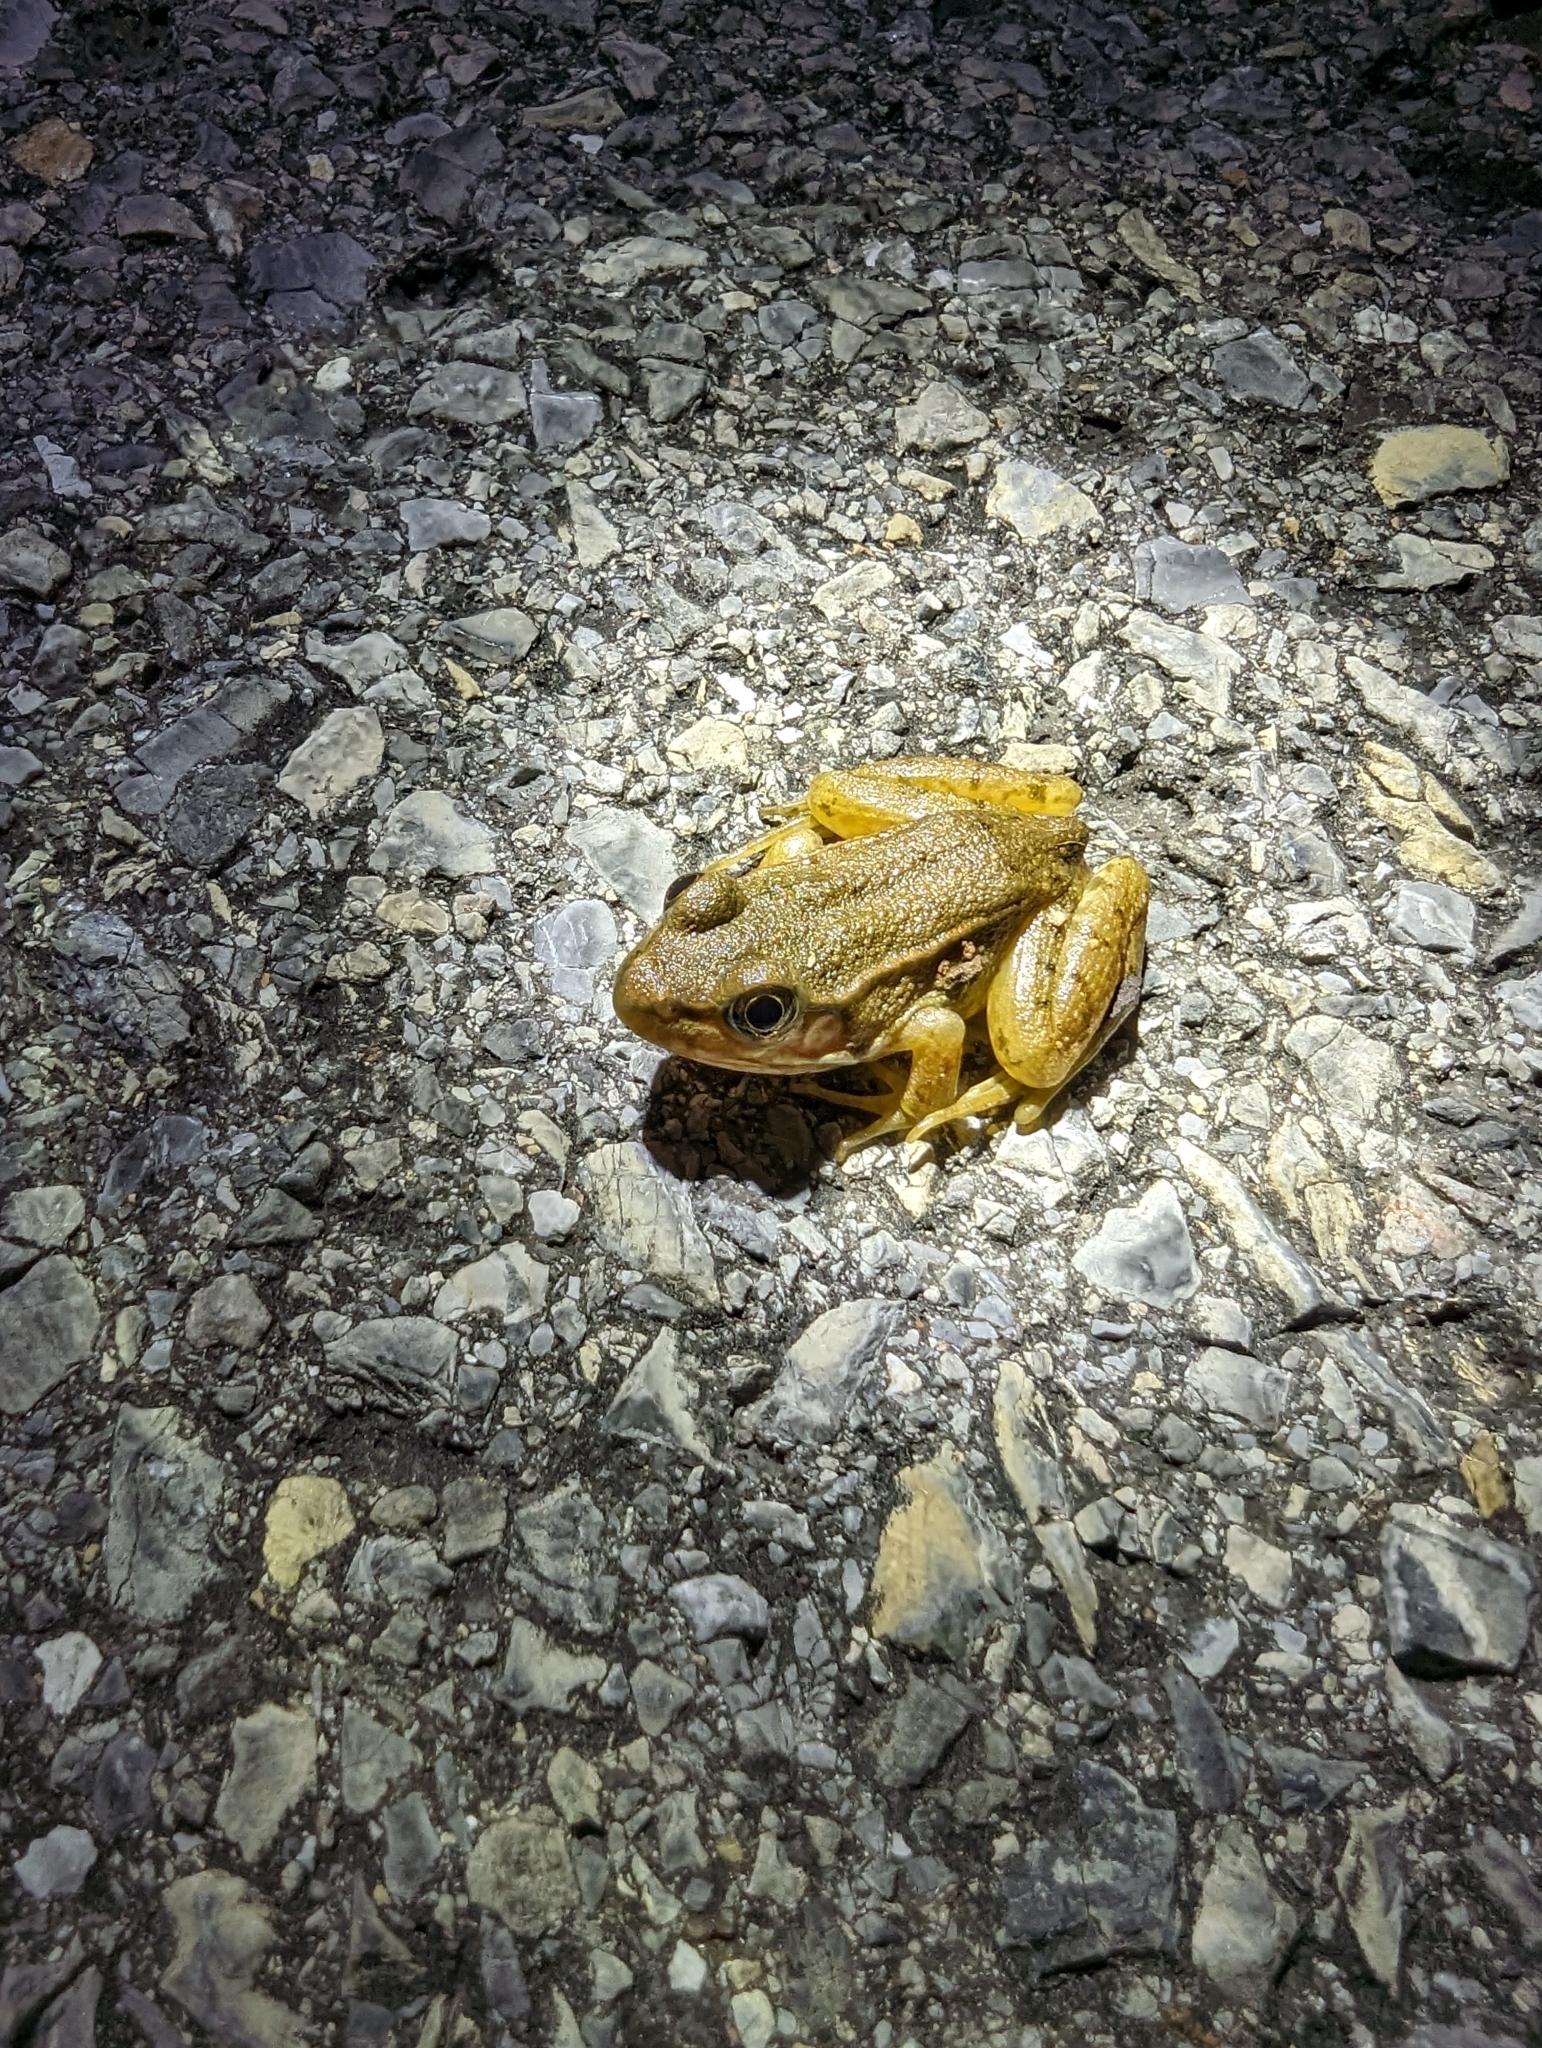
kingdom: Animalia
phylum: Chordata
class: Amphibia
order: Anura
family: Ranidae
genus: Lithobates
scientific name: Lithobates clamitans
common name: Green frog
